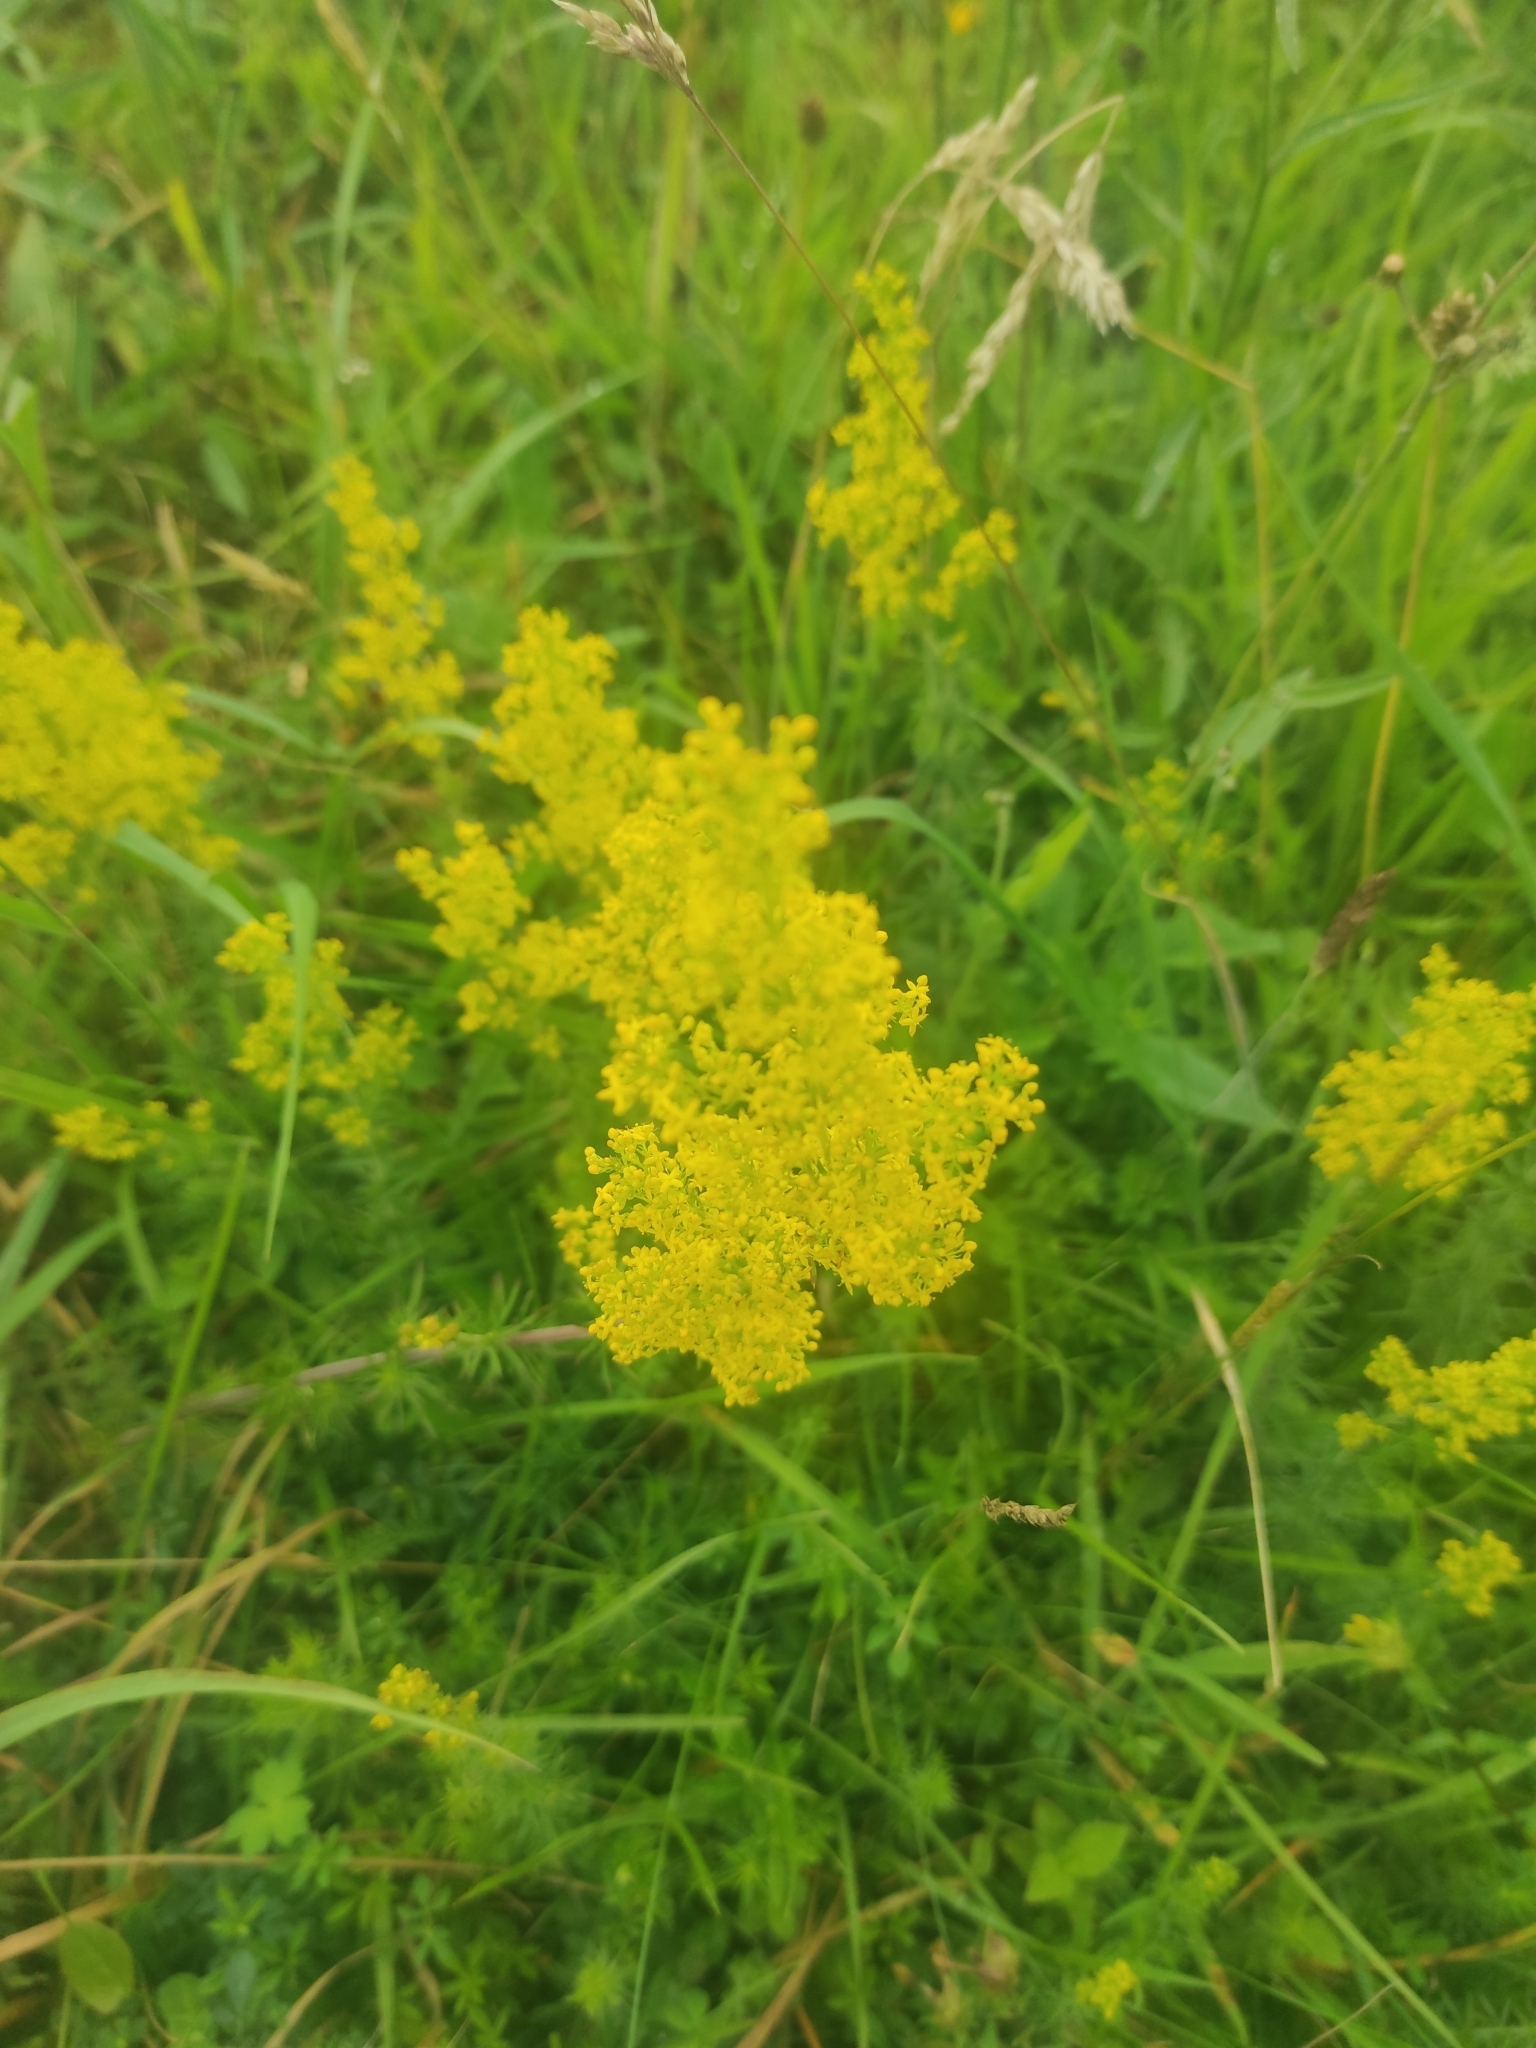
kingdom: Plantae
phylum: Tracheophyta
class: Magnoliopsida
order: Gentianales
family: Rubiaceae
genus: Galium
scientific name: Galium verum
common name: Lady's bedstraw
